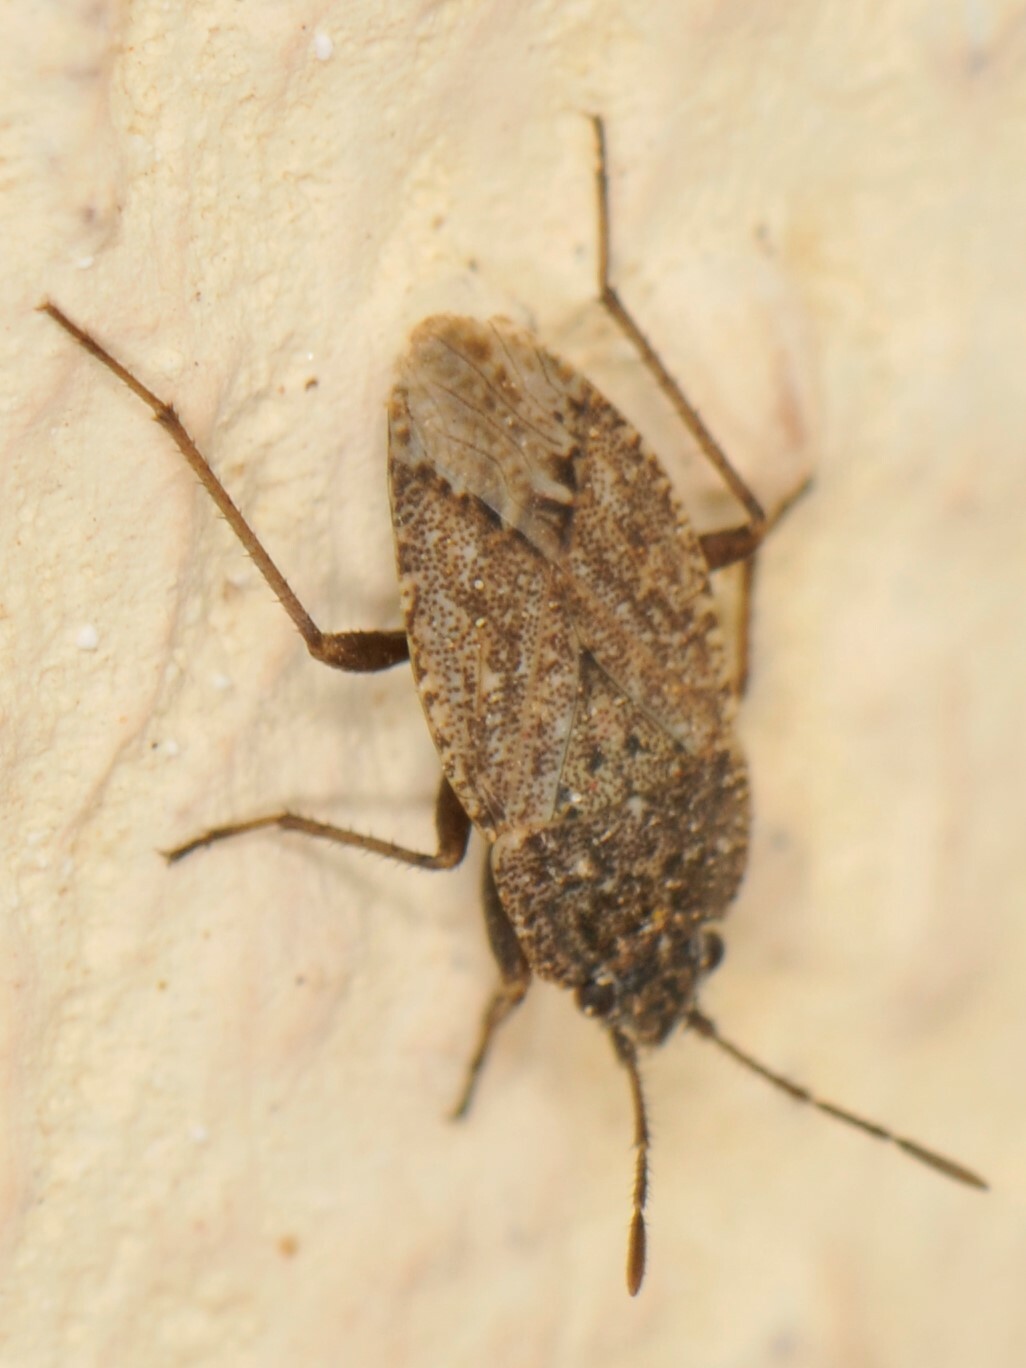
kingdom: Animalia
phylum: Arthropoda
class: Insecta
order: Hemiptera
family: Rhyparochromidae
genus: Emblethis
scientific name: Emblethis vicarius
